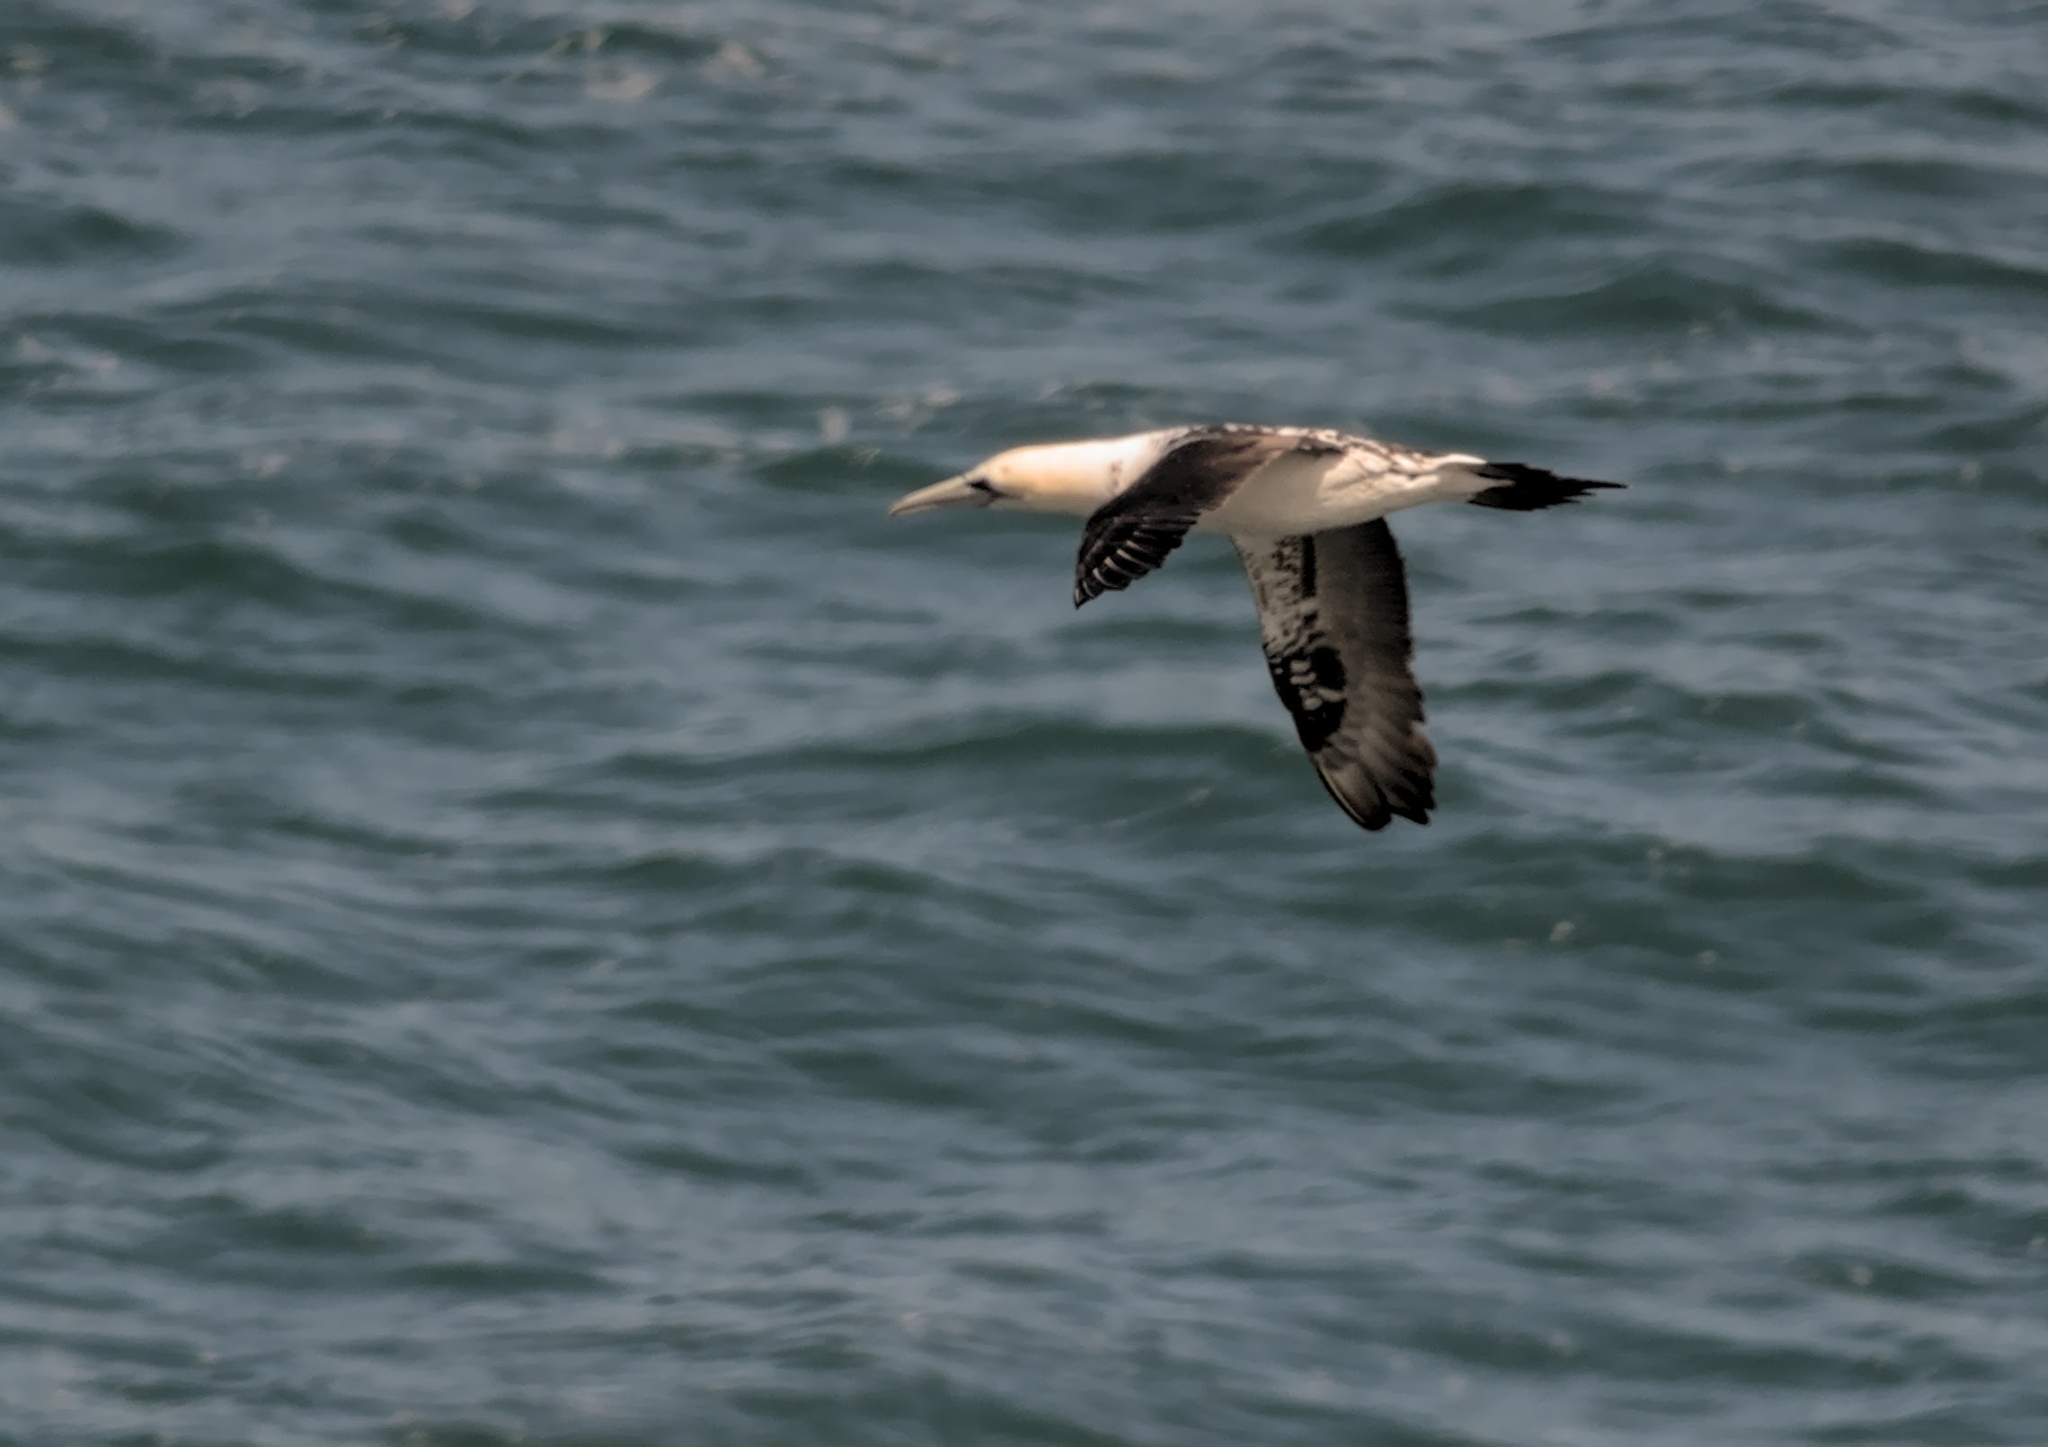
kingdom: Animalia
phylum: Chordata
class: Aves
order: Suliformes
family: Sulidae
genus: Morus
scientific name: Morus bassanus
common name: Northern gannet
